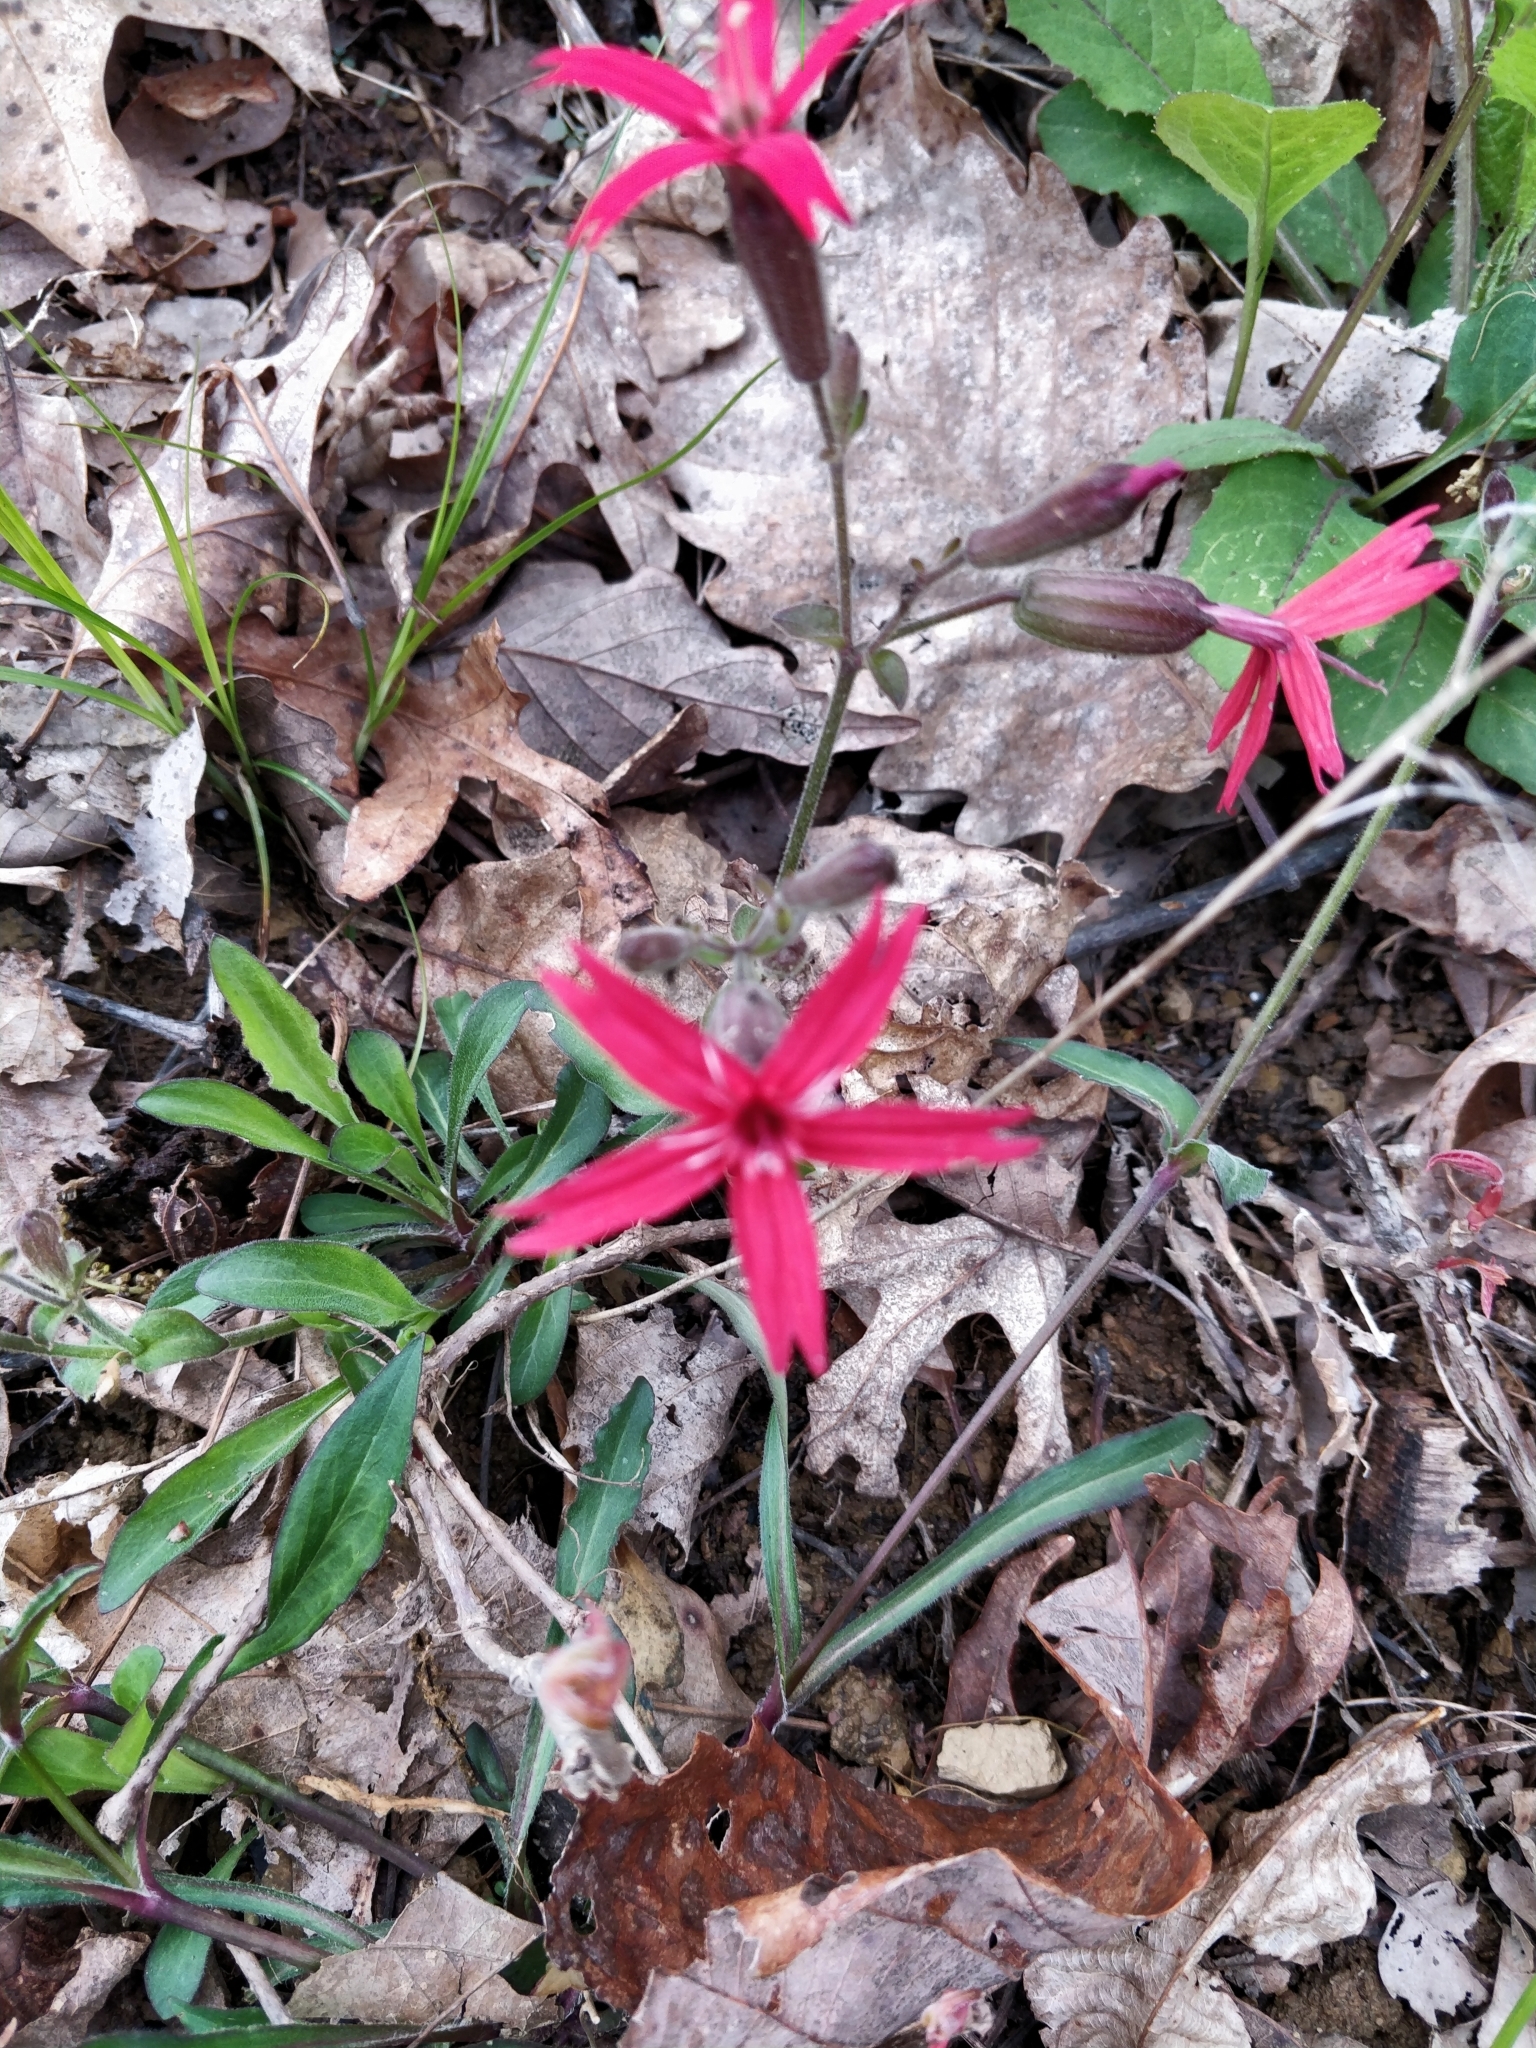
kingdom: Plantae
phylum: Tracheophyta
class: Magnoliopsida
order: Caryophyllales
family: Caryophyllaceae
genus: Silene
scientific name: Silene virginica
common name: Fire-pink
